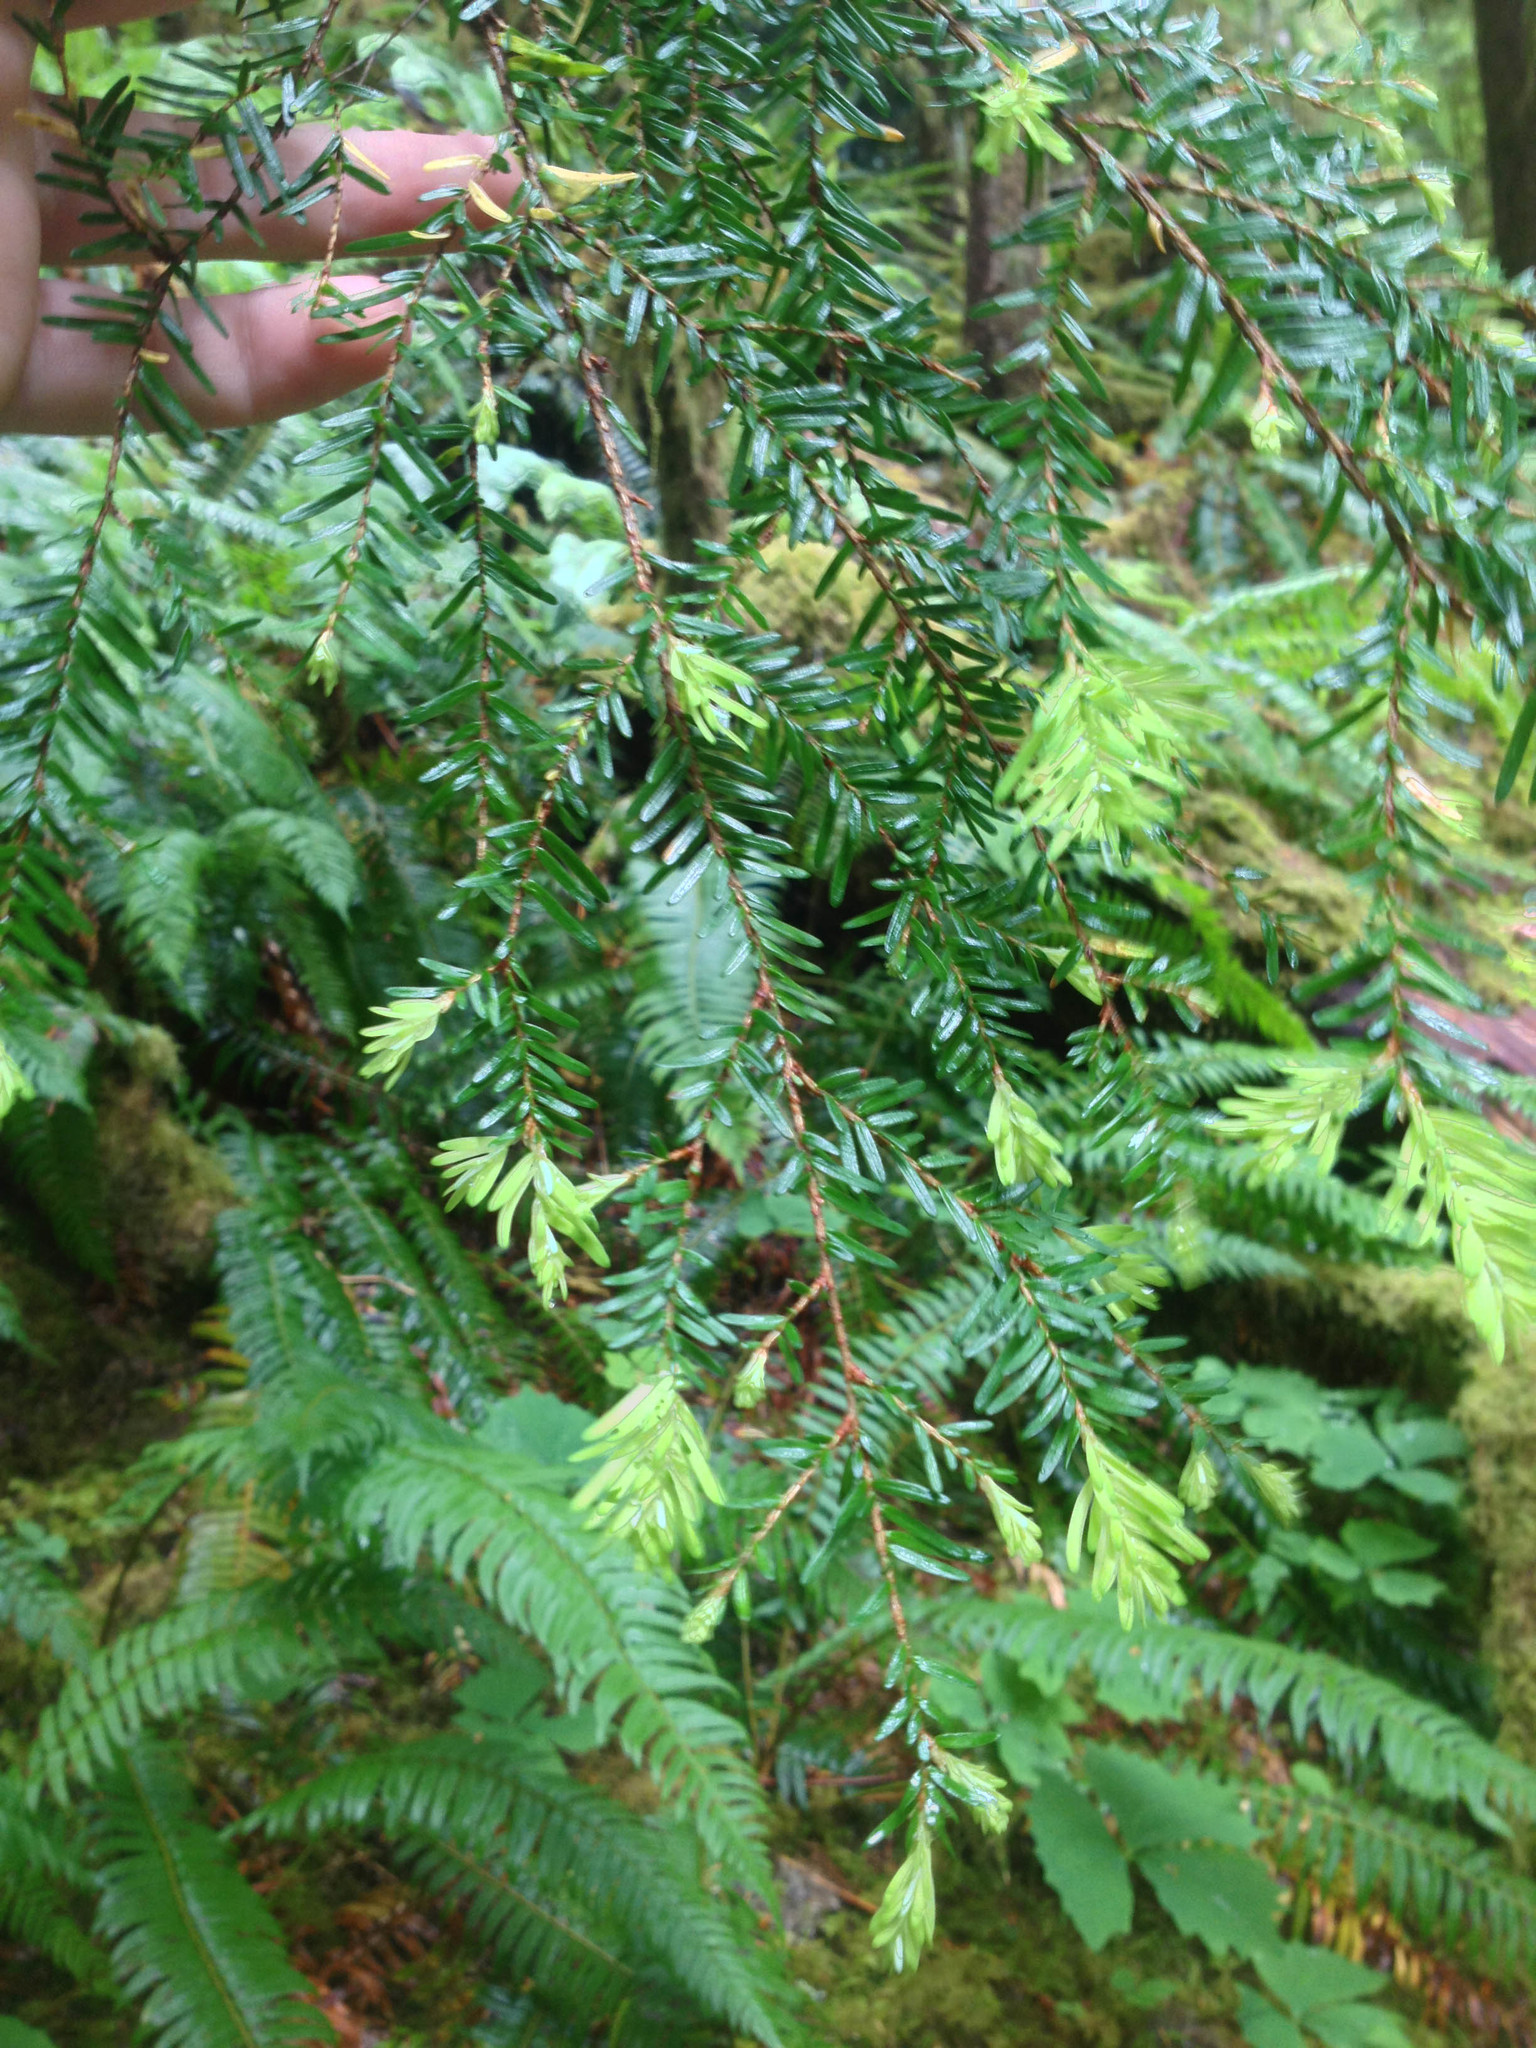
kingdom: Plantae
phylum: Tracheophyta
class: Pinopsida
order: Pinales
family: Pinaceae
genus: Tsuga
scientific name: Tsuga heterophylla
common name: Western hemlock
